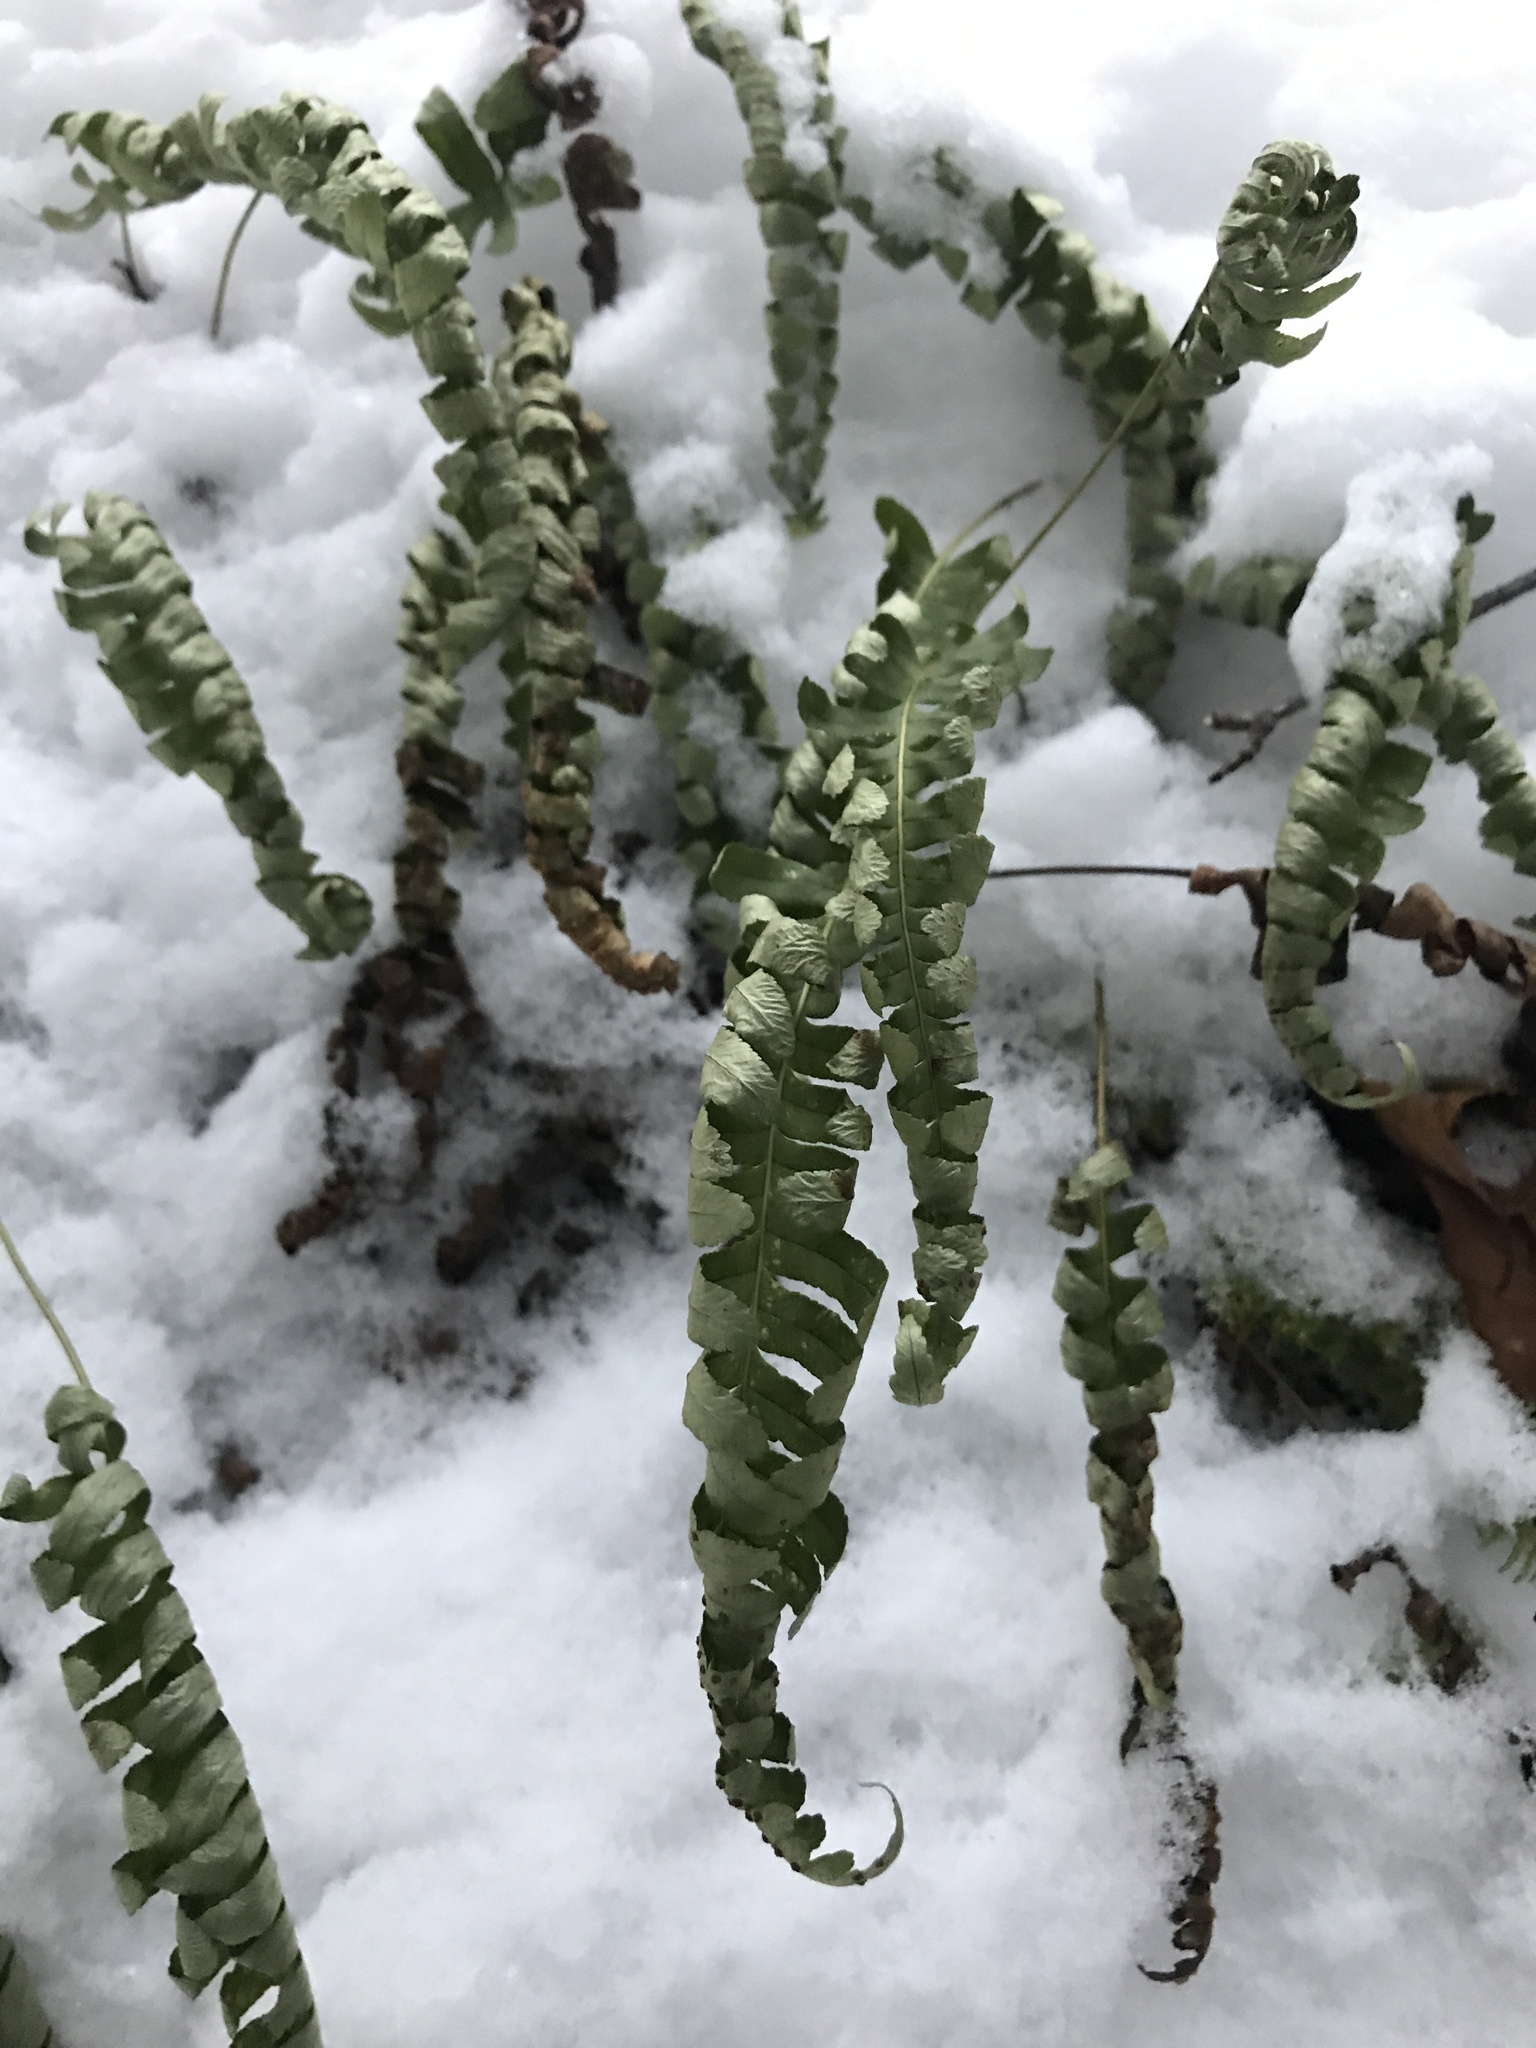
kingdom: Plantae
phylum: Tracheophyta
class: Polypodiopsida
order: Polypodiales
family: Polypodiaceae
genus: Polypodium
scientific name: Polypodium virginianum
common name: American wall fern
